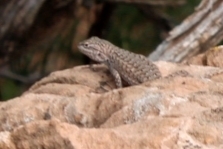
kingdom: Animalia
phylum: Chordata
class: Squamata
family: Phrynosomatidae
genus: Sceloporus
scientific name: Sceloporus tristichus
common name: Plateau fence lizard
